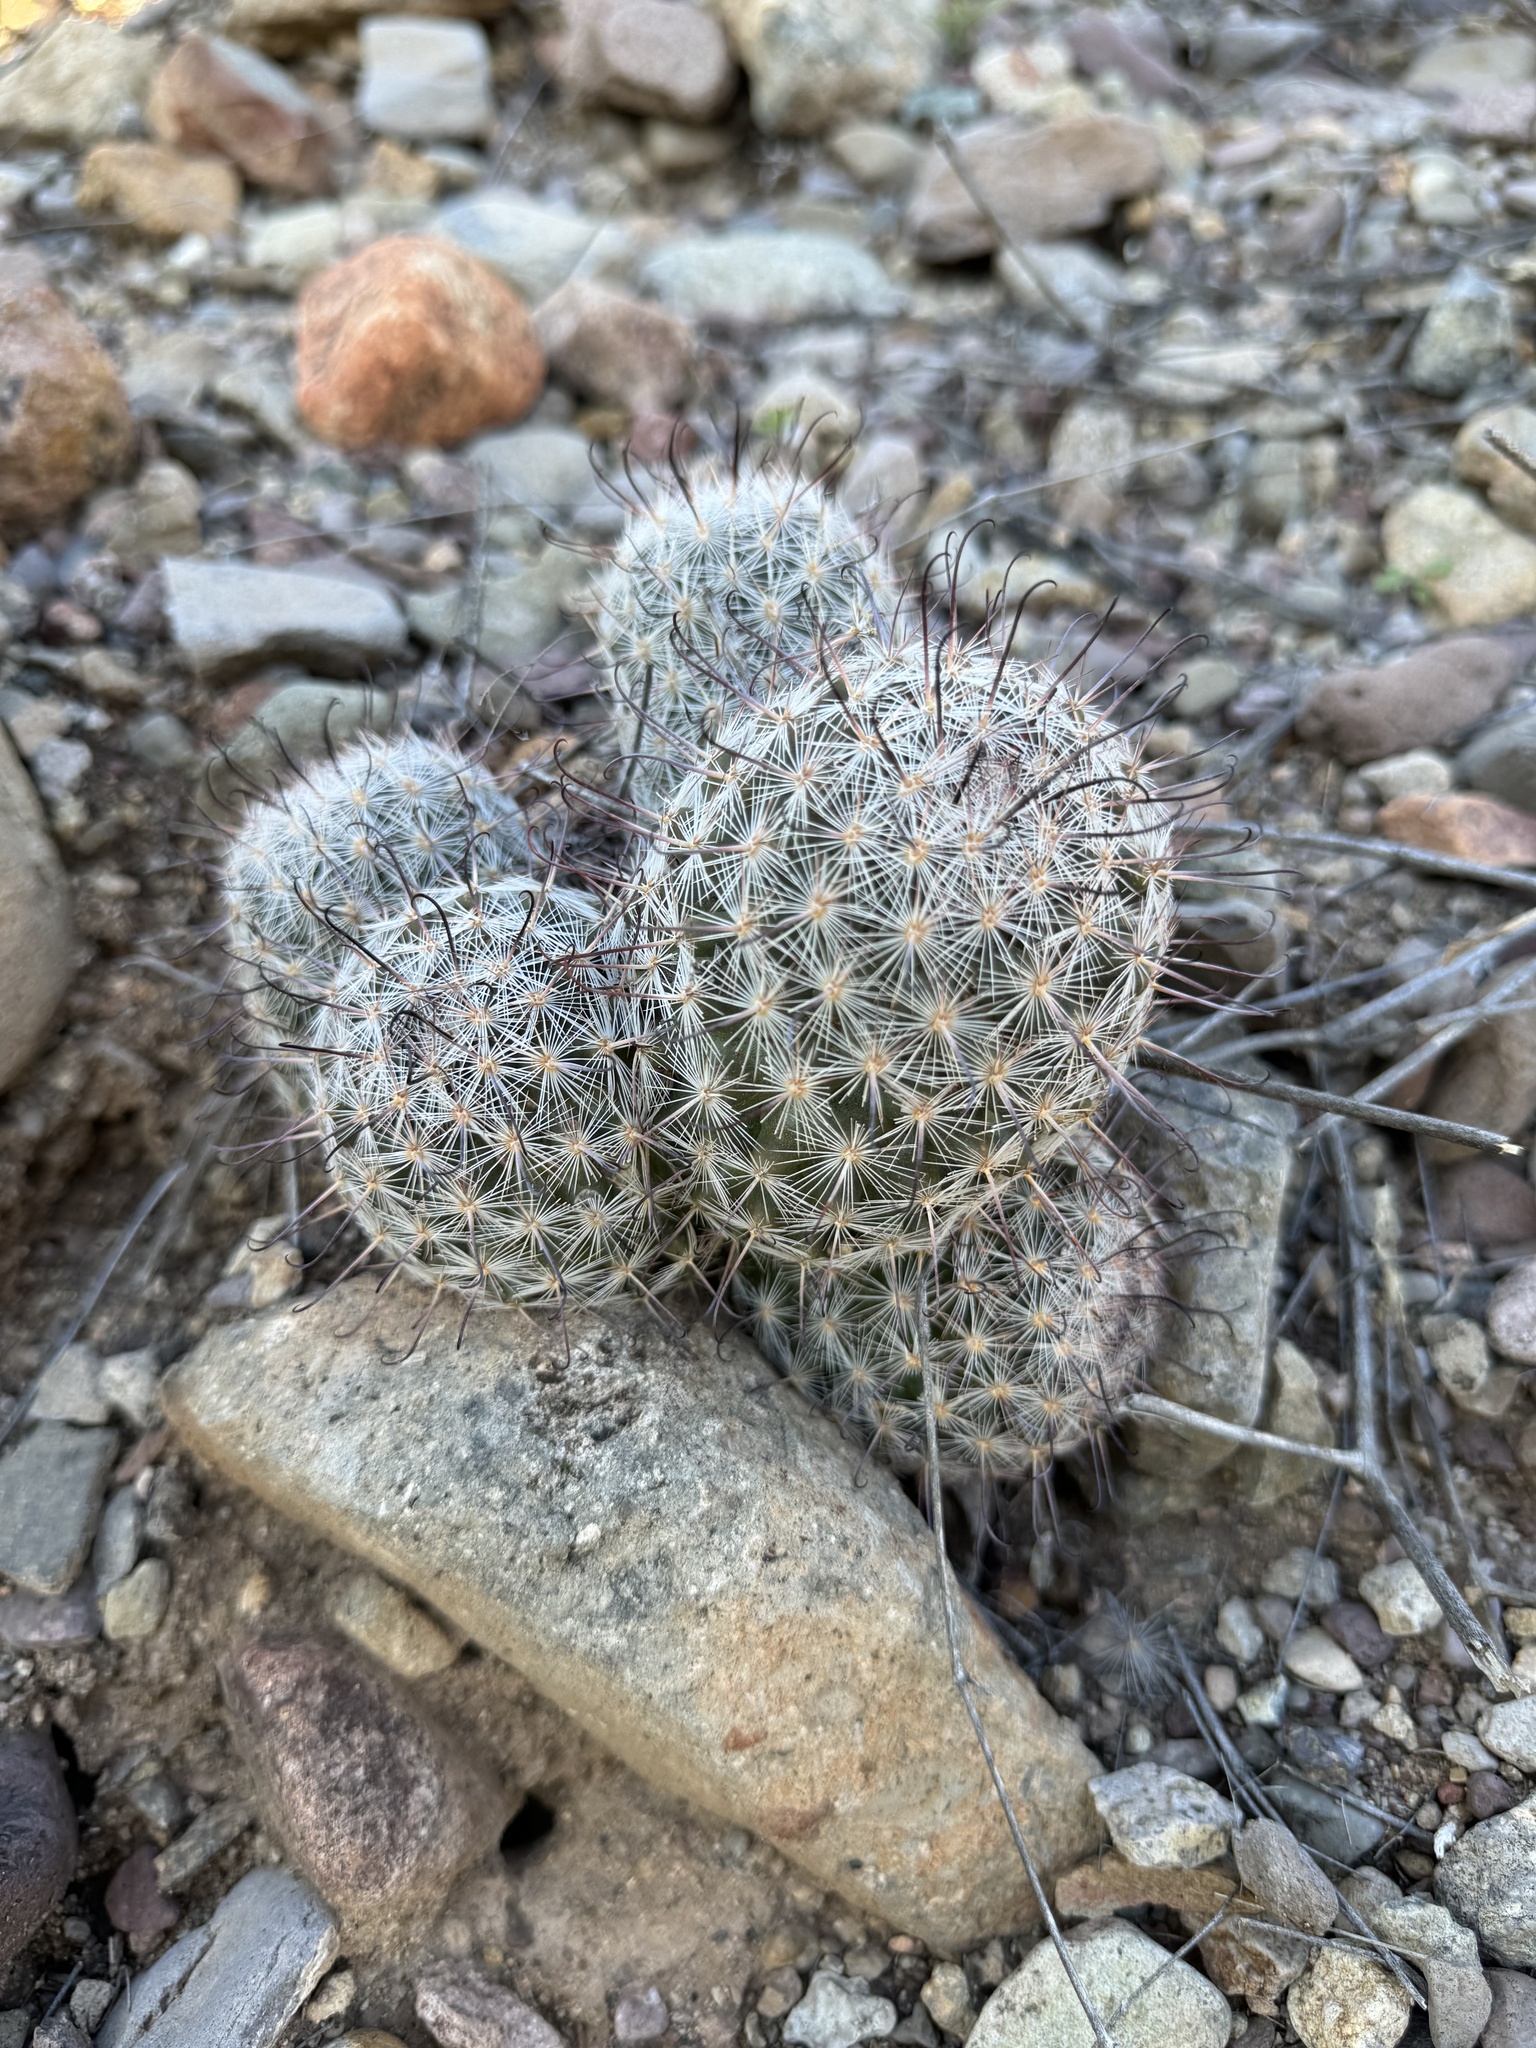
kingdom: Plantae
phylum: Tracheophyta
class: Magnoliopsida
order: Caryophyllales
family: Cactaceae
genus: Cochemiea
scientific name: Cochemiea grahamii
